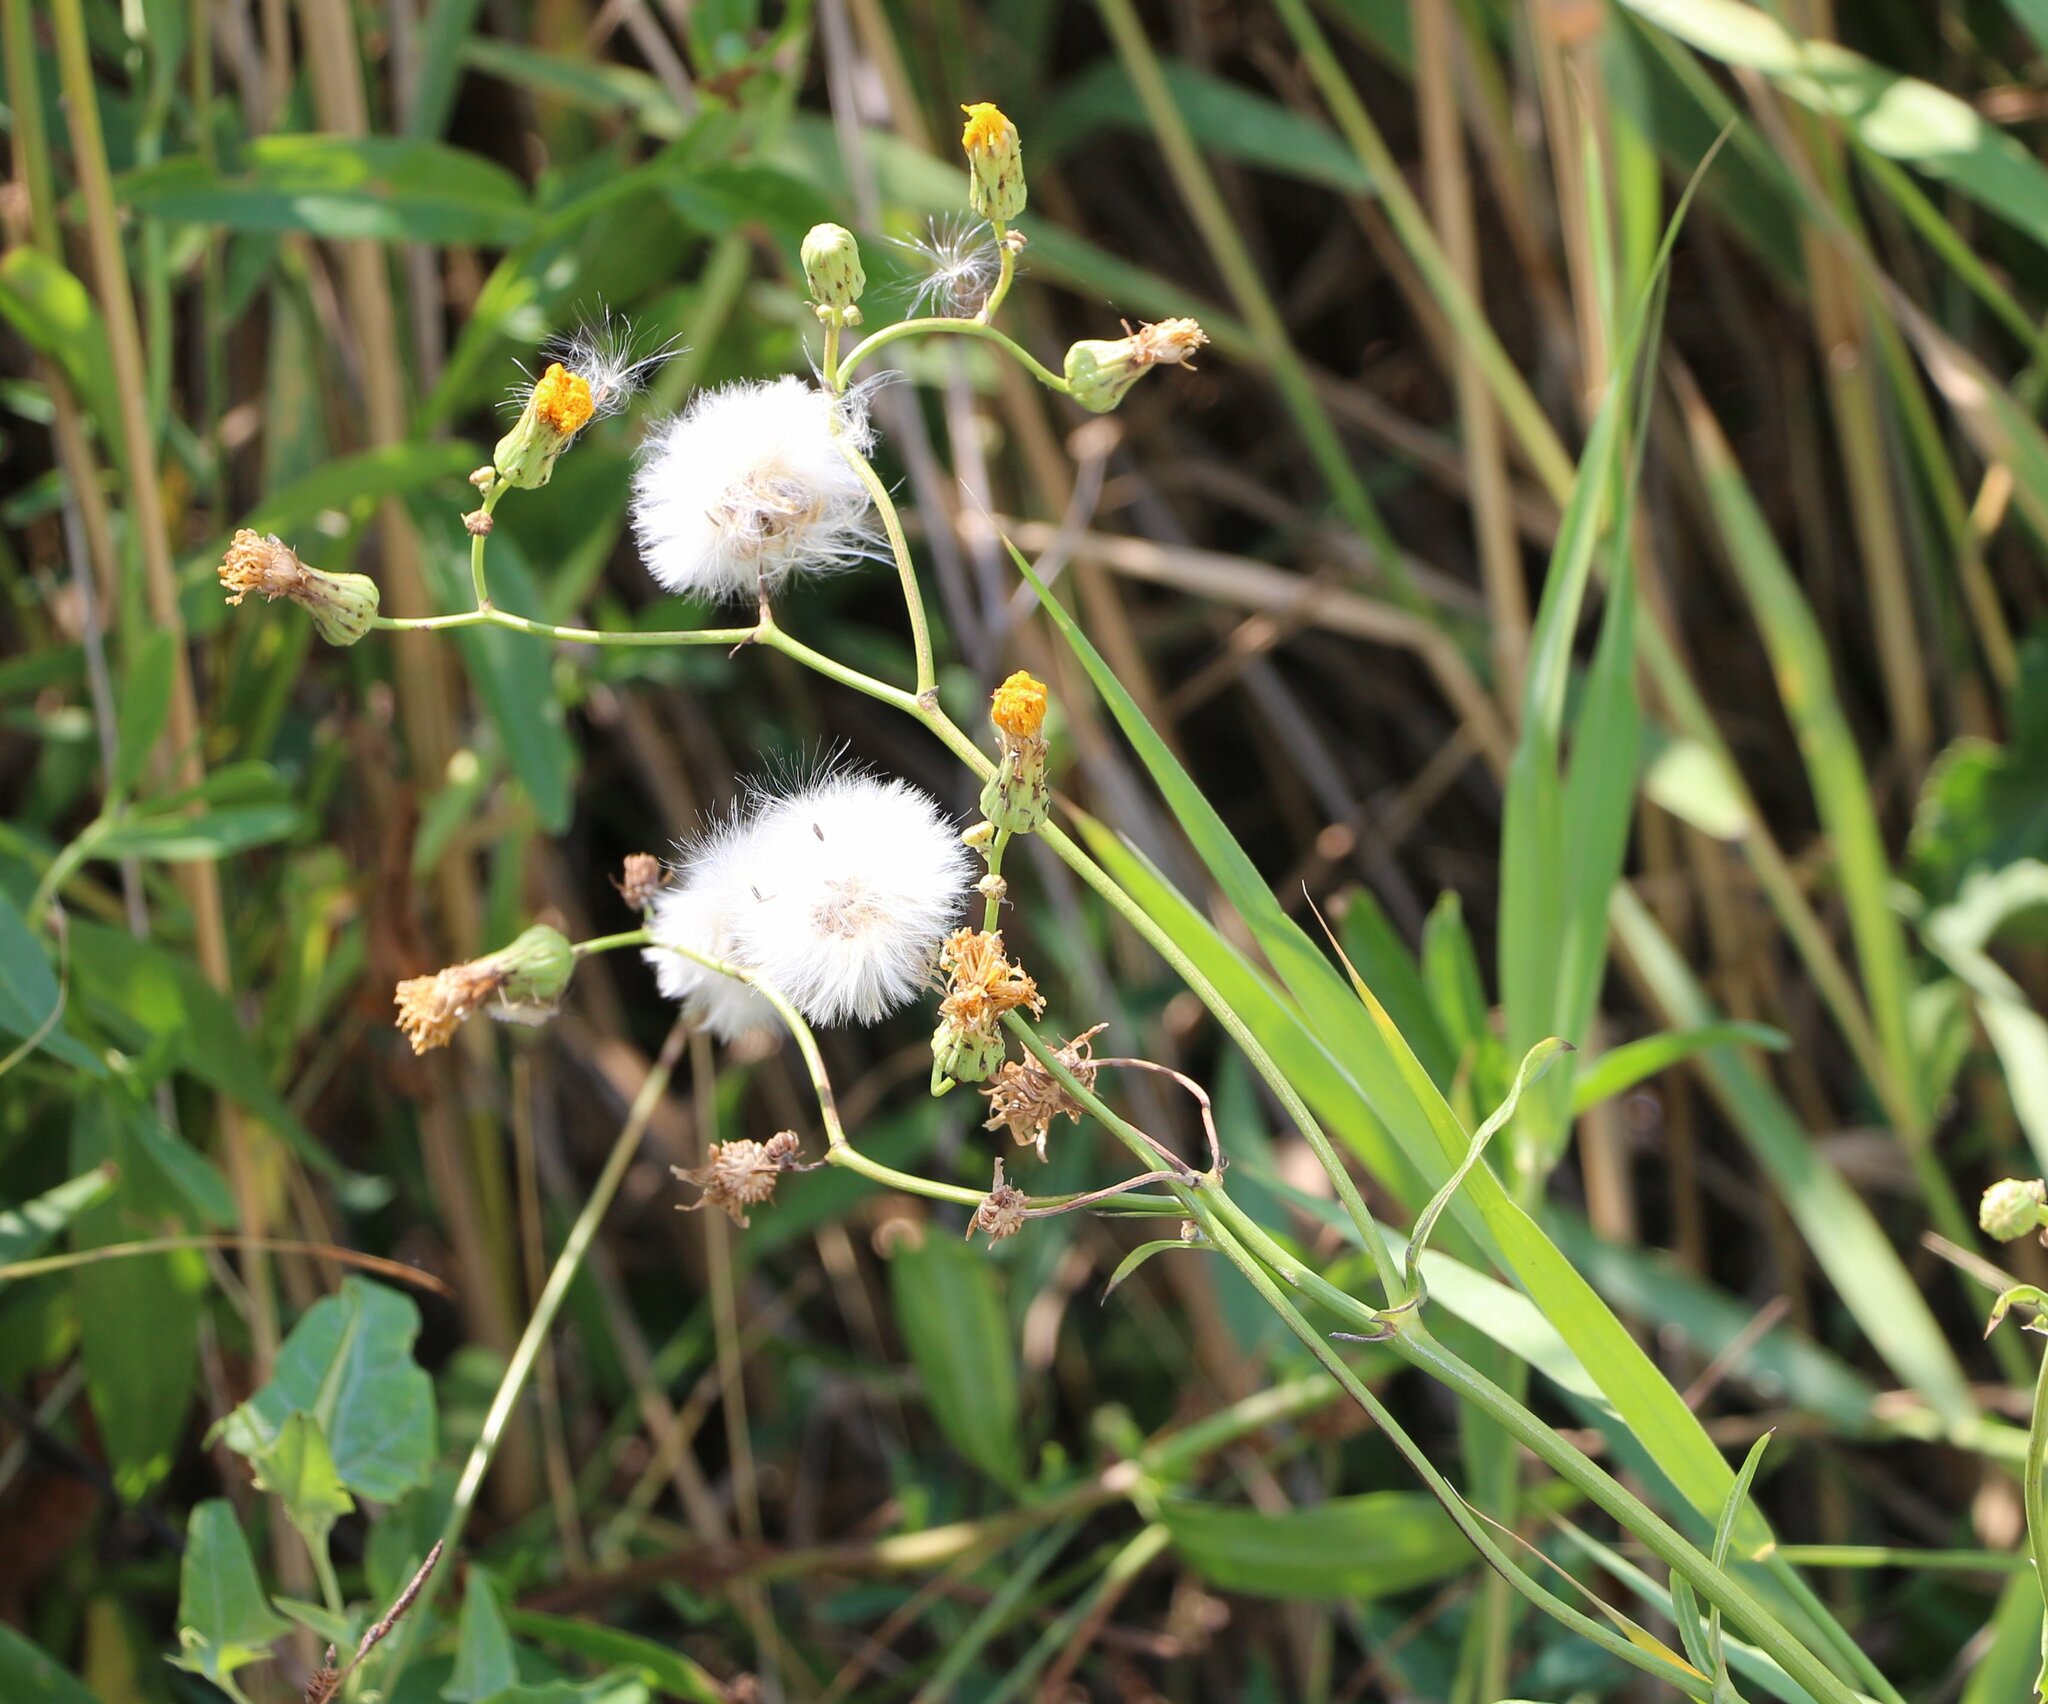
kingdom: Plantae
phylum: Tracheophyta
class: Magnoliopsida
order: Asterales
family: Asteraceae
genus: Sonchus
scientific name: Sonchus arvensis
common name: Perennial sow-thistle
